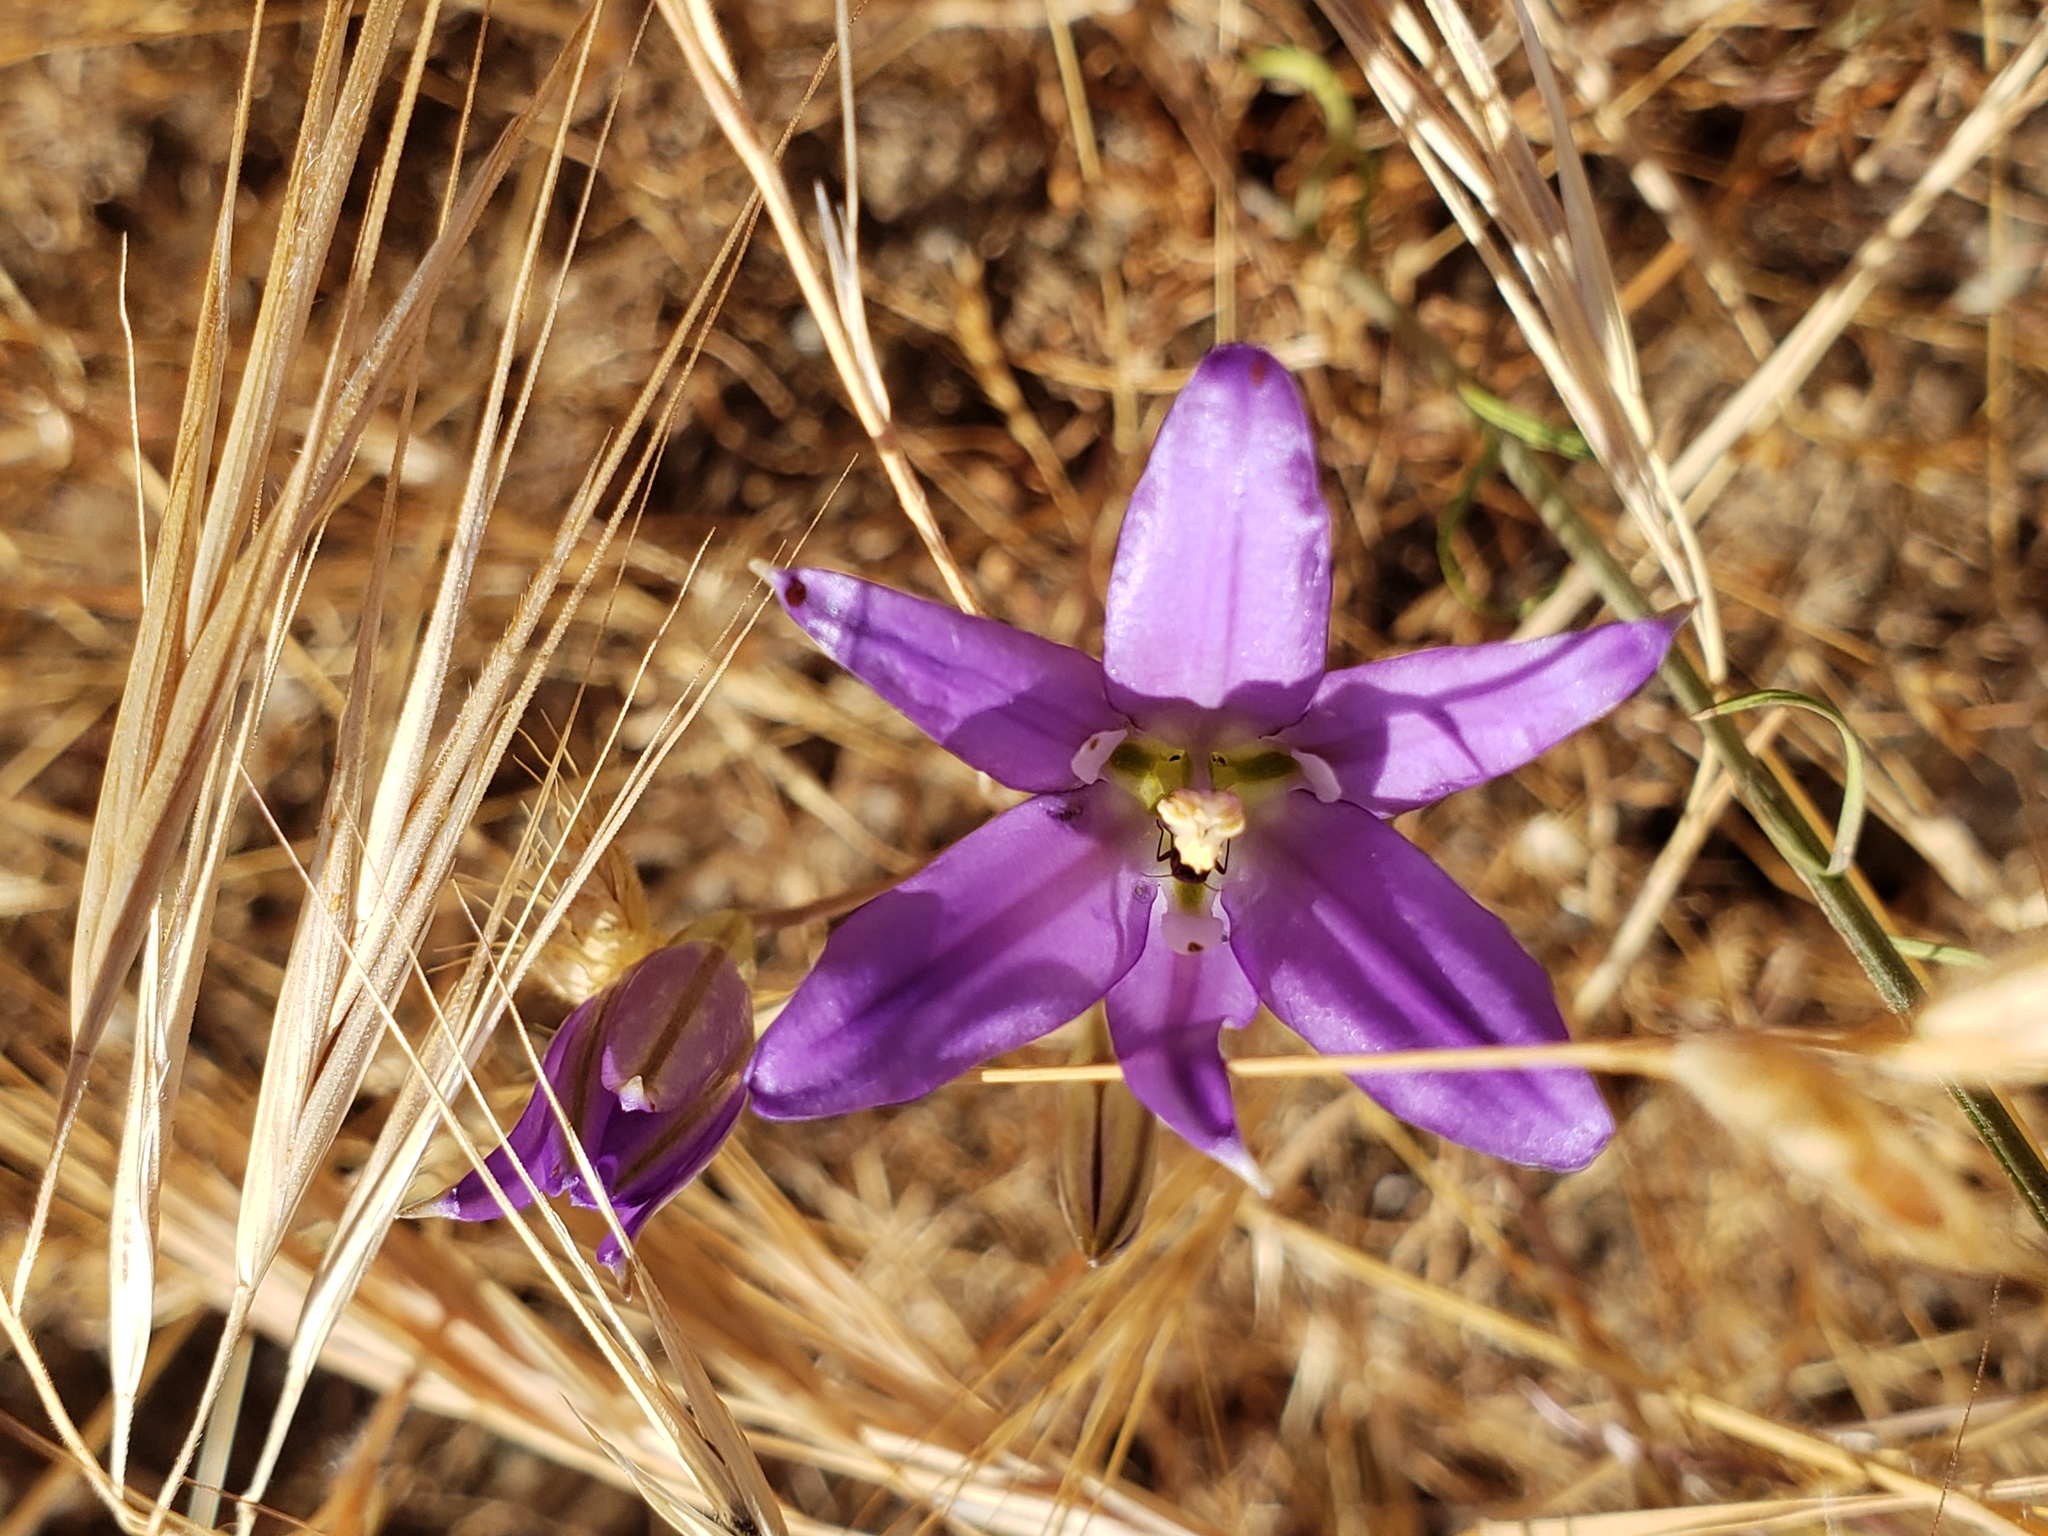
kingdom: Plantae
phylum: Tracheophyta
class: Liliopsida
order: Asparagales
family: Asparagaceae
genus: Brodiaea
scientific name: Brodiaea elegans
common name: Elegant cluster-lily
